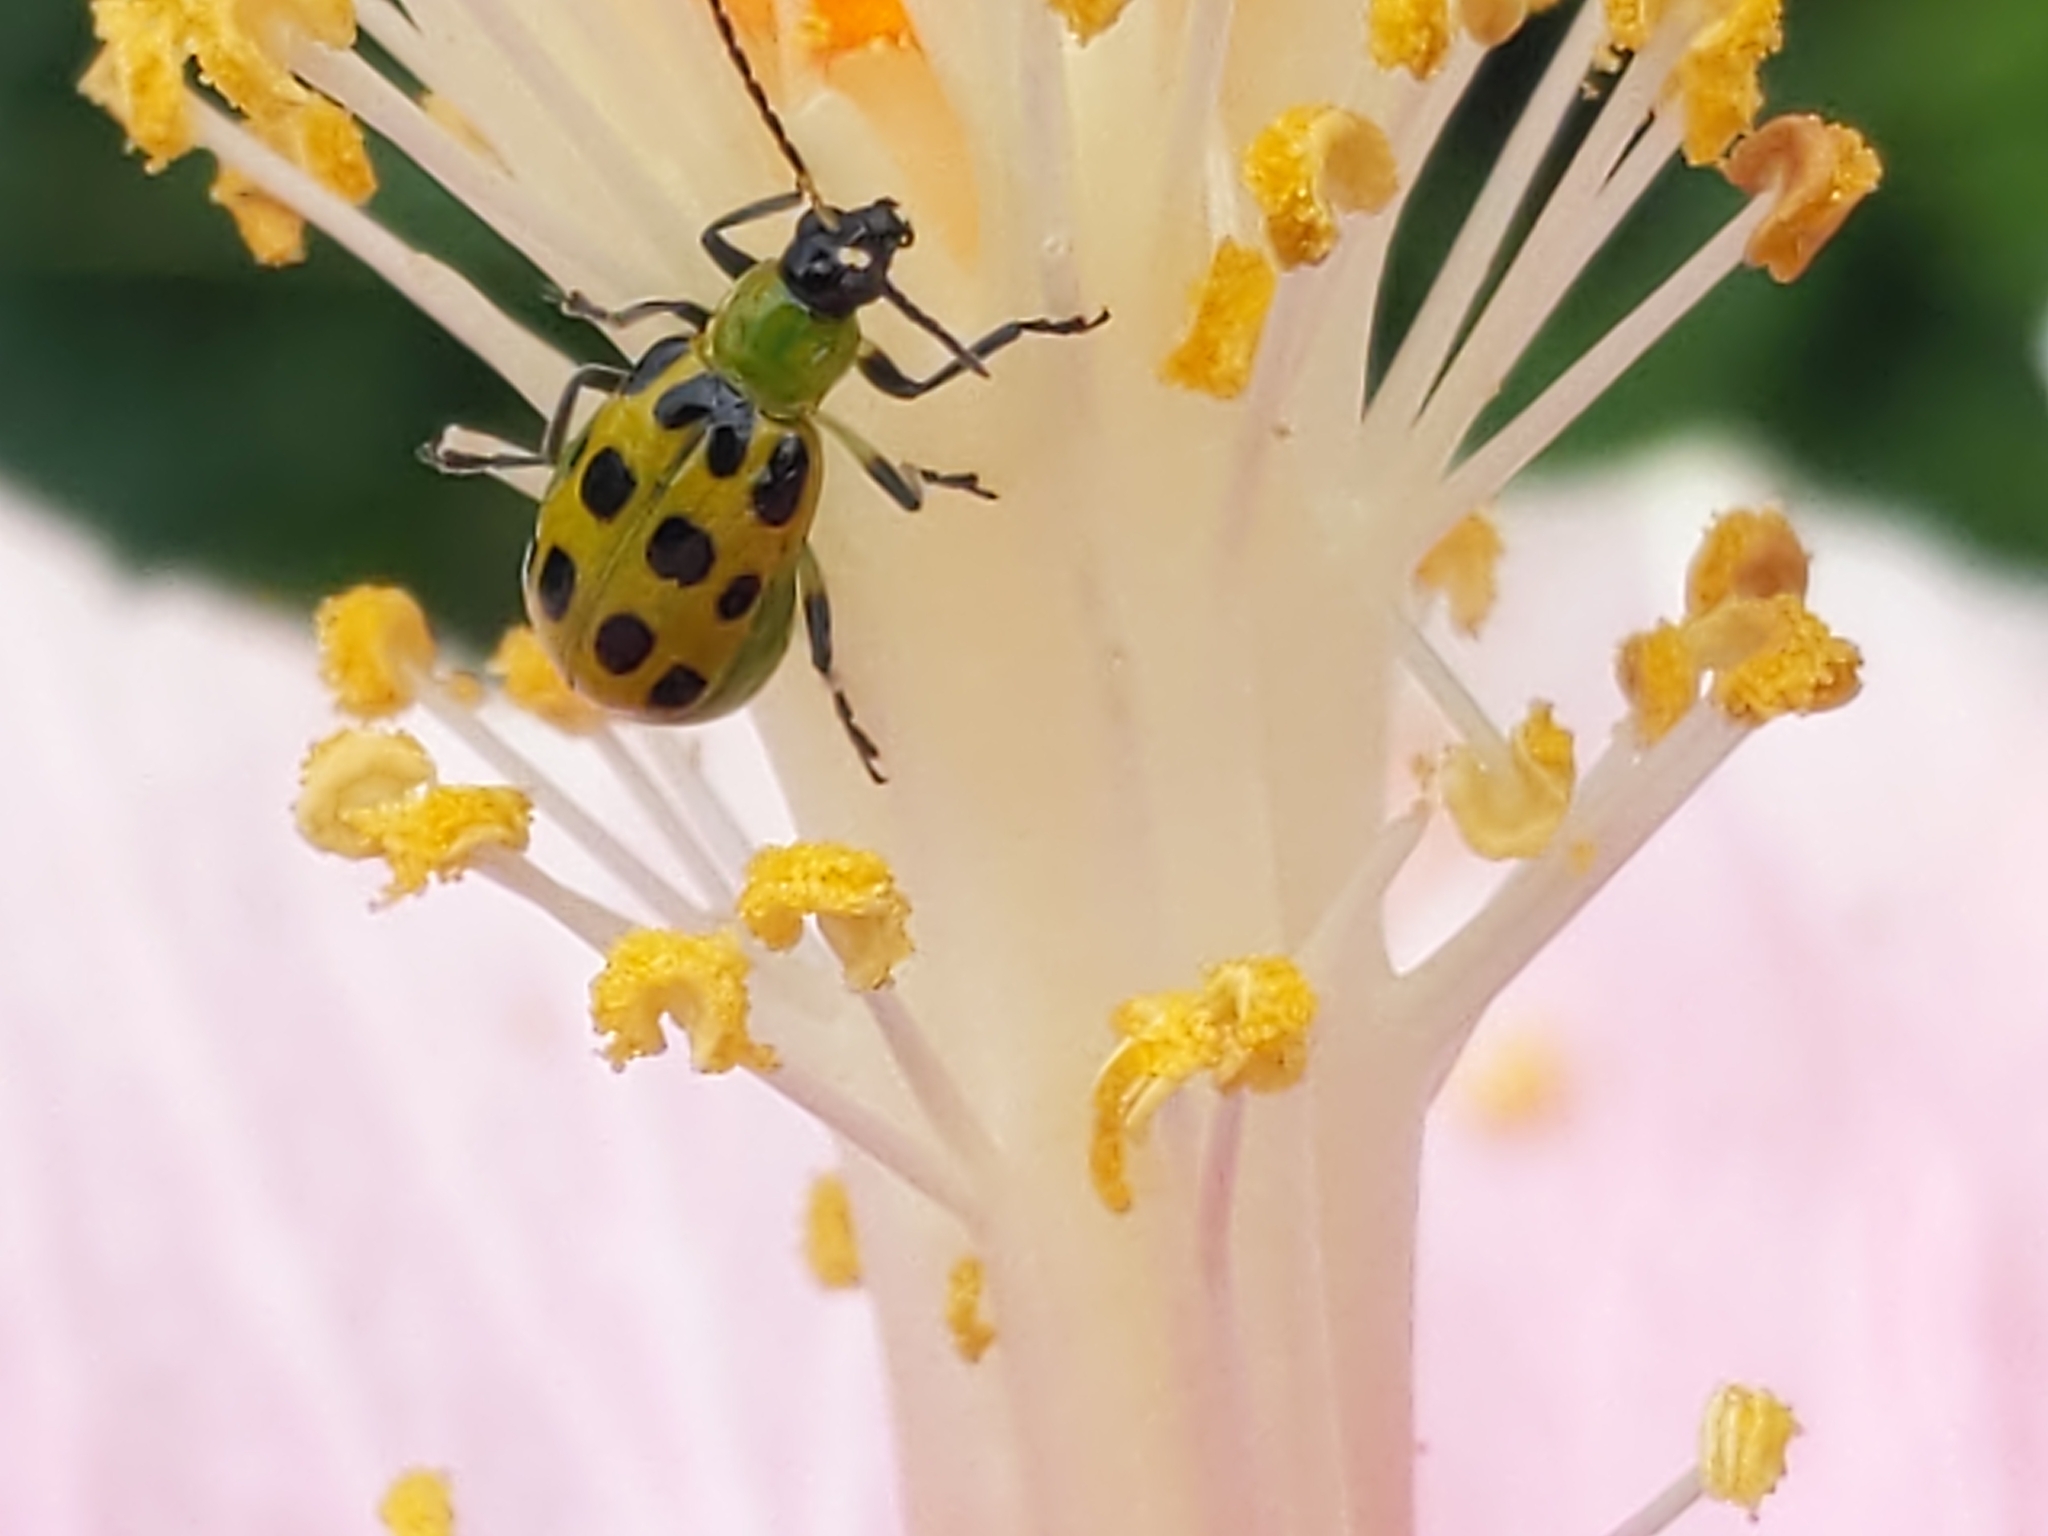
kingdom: Animalia
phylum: Arthropoda
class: Insecta
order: Coleoptera
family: Chrysomelidae
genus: Diabrotica
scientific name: Diabrotica undecimpunctata
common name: Spotted cucumber beetle
